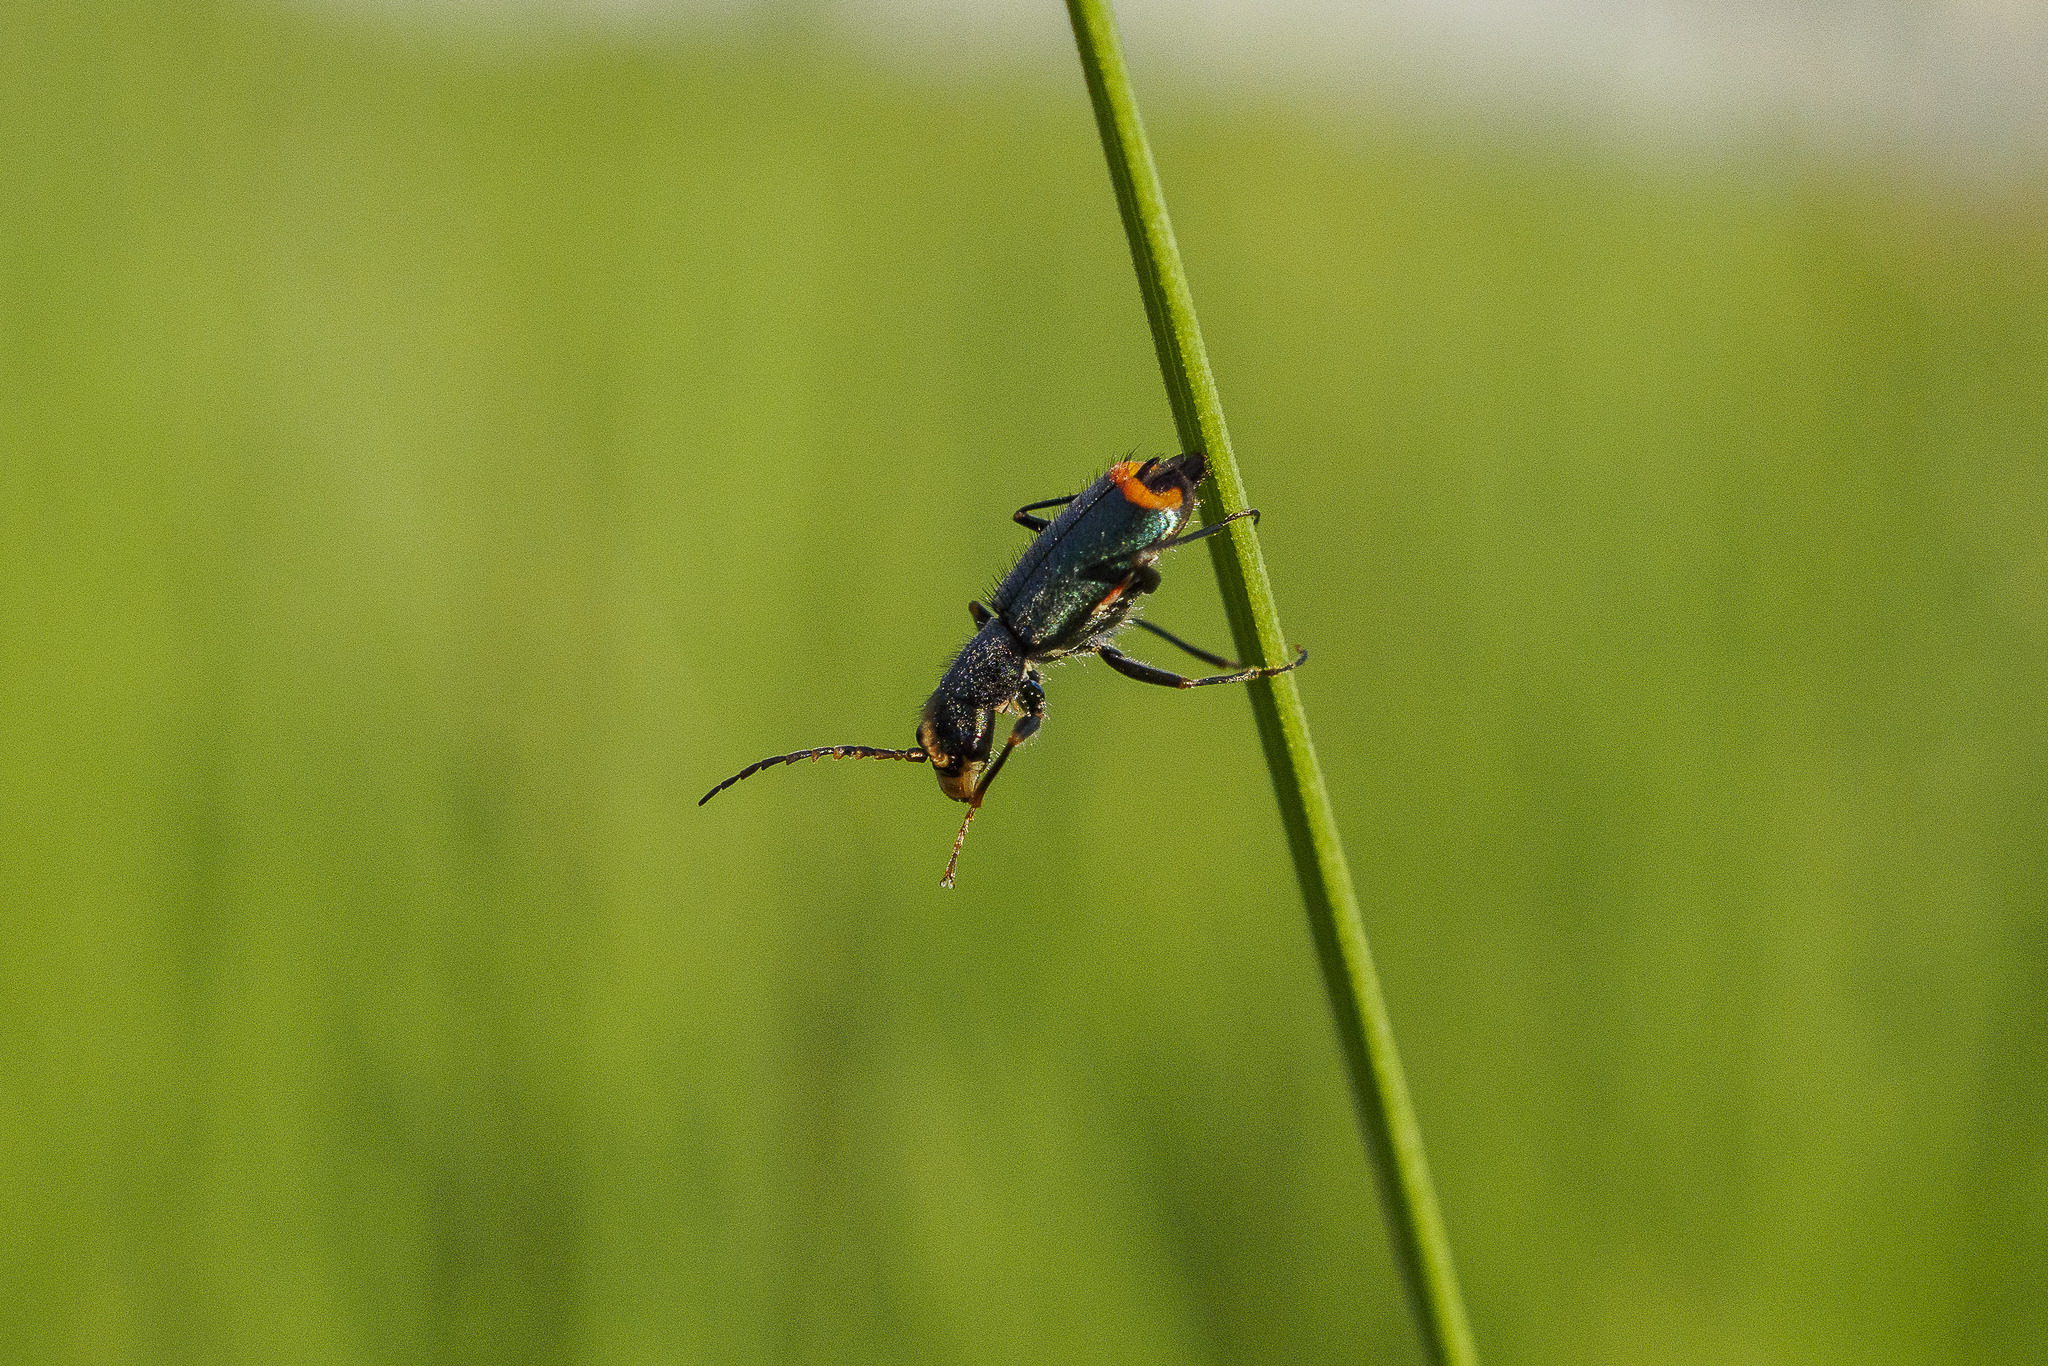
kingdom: Animalia
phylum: Arthropoda
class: Insecta
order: Coleoptera
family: Malachiidae
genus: Clanoptilus
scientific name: Clanoptilus geniculatus
